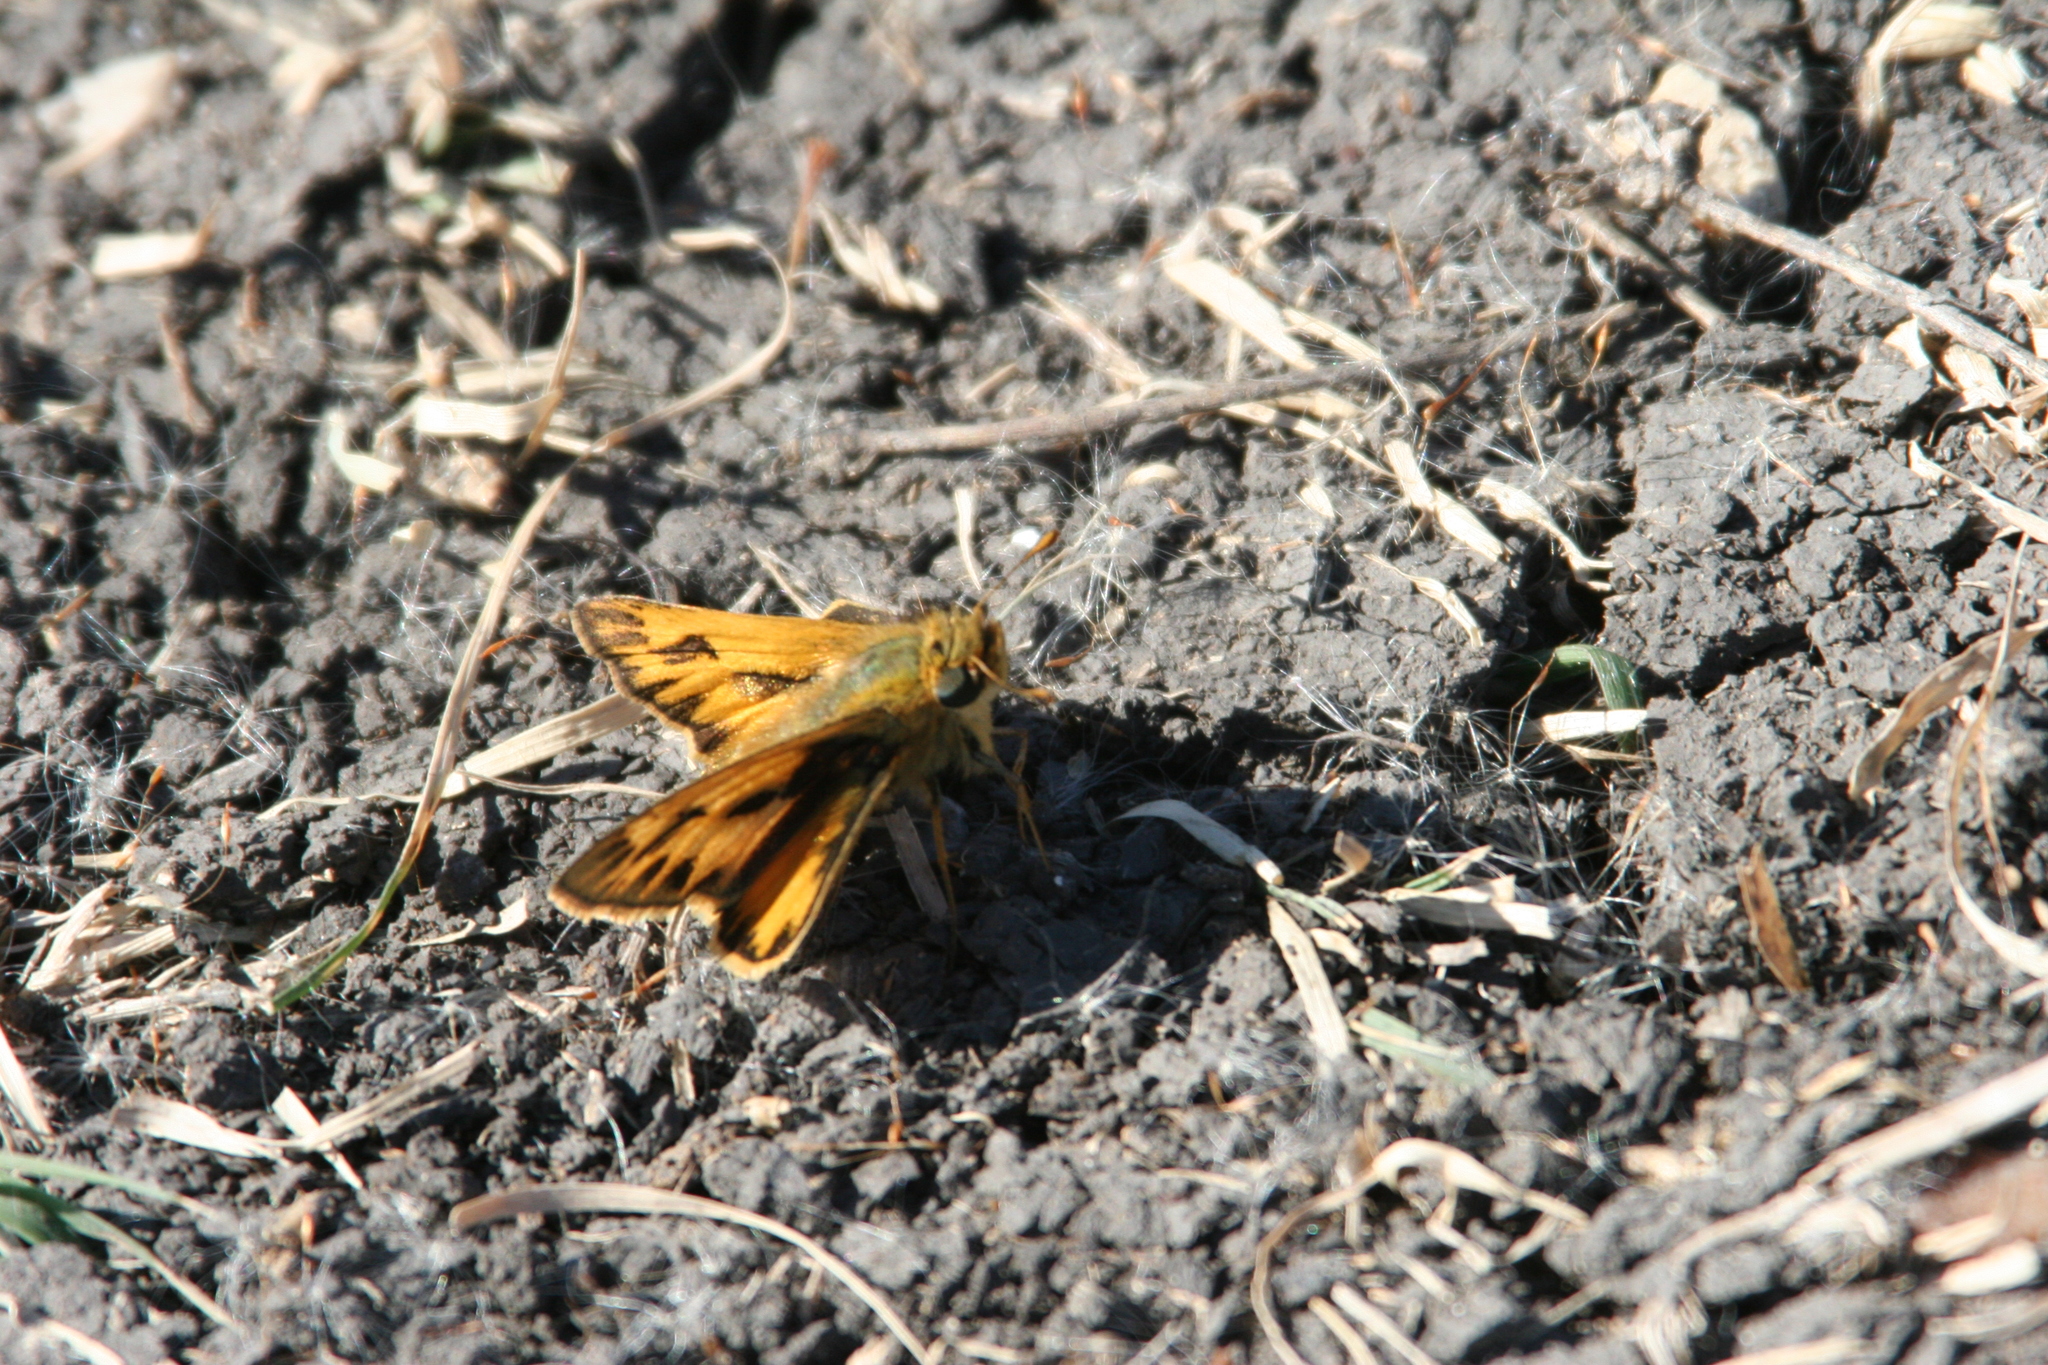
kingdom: Animalia
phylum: Arthropoda
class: Insecta
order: Lepidoptera
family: Hesperiidae
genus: Hylephila
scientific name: Hylephila phyleus
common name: Fiery skipper
